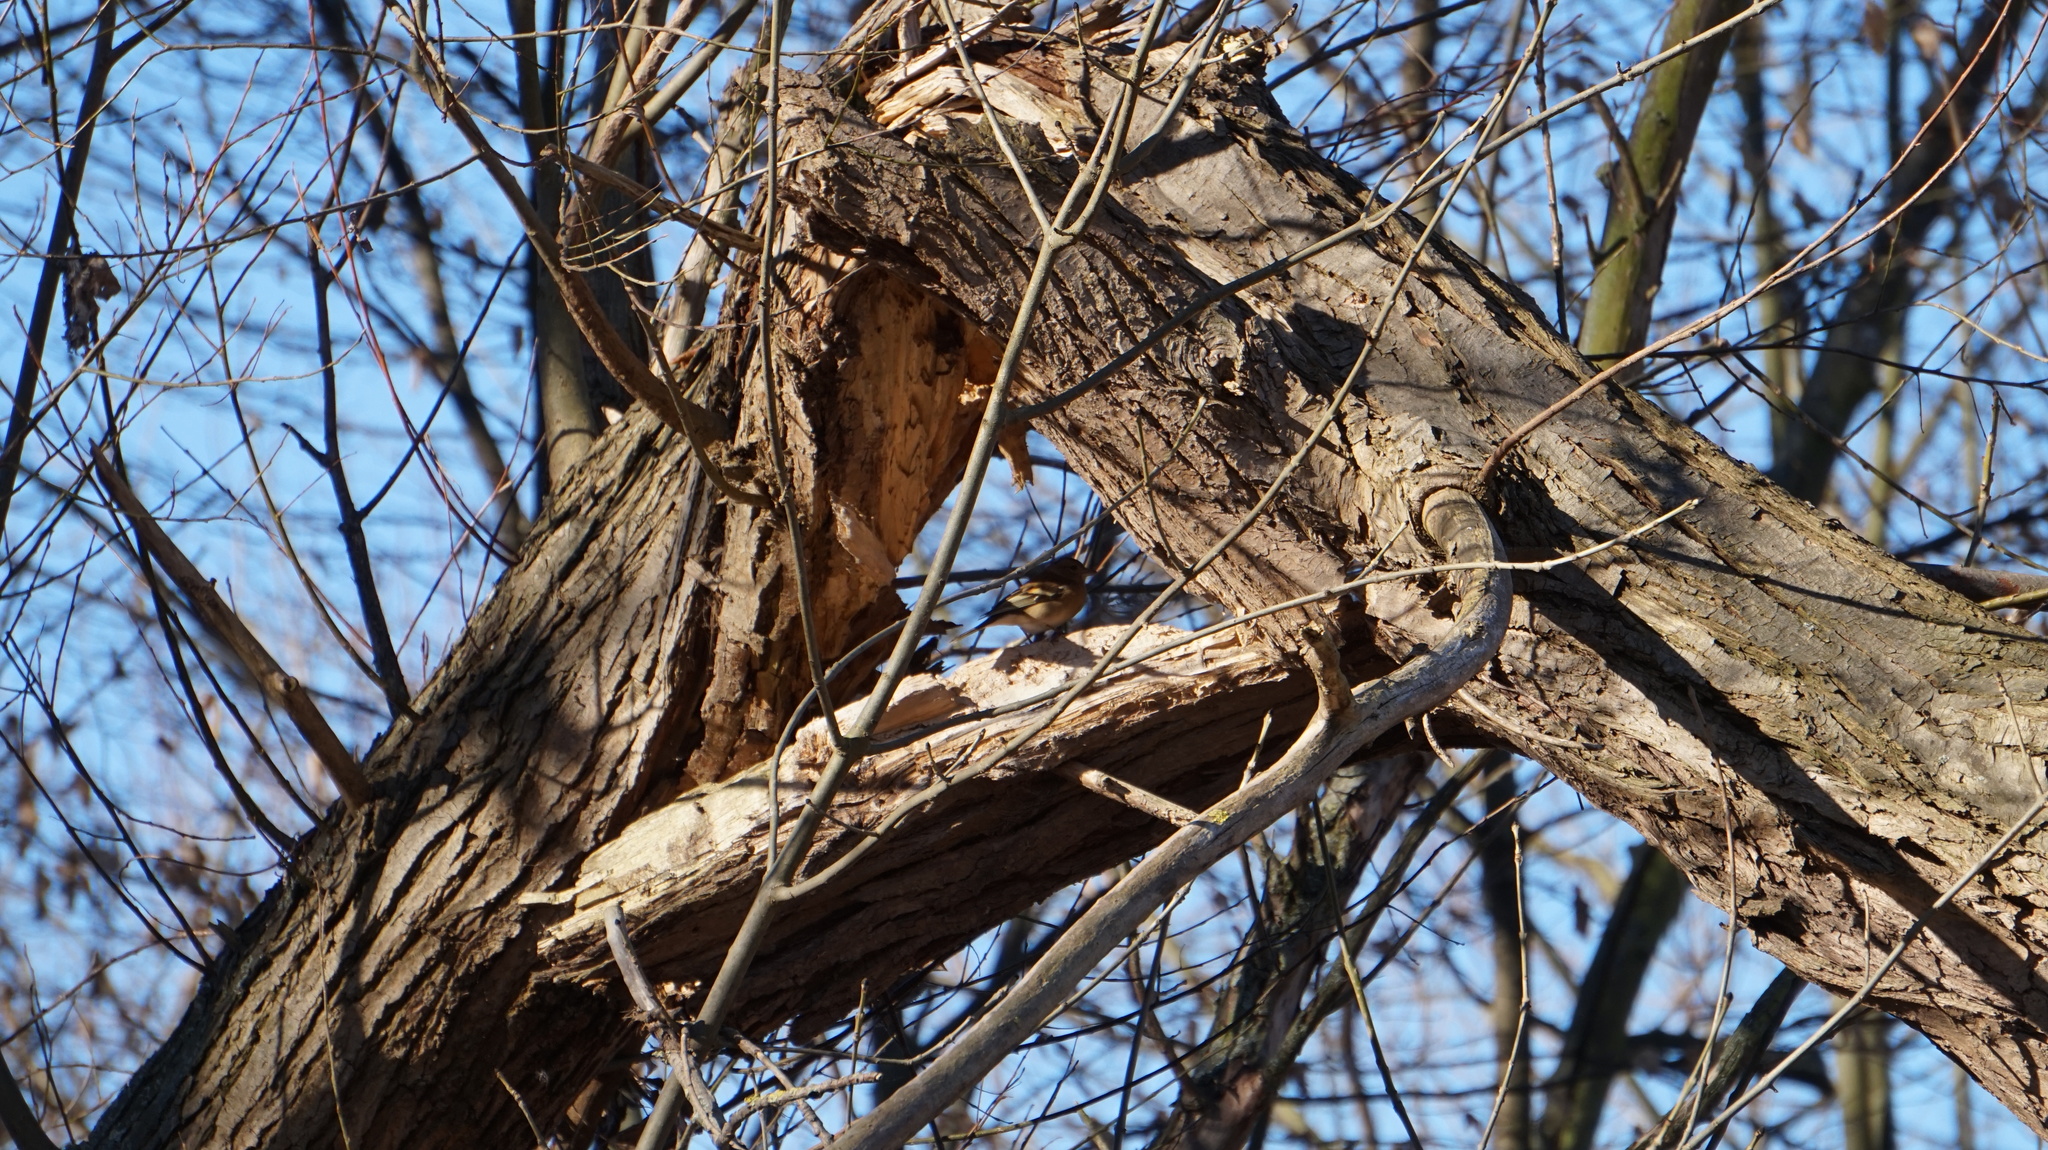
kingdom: Animalia
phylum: Chordata
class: Aves
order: Passeriformes
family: Fringillidae
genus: Fringilla
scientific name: Fringilla coelebs
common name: Common chaffinch
